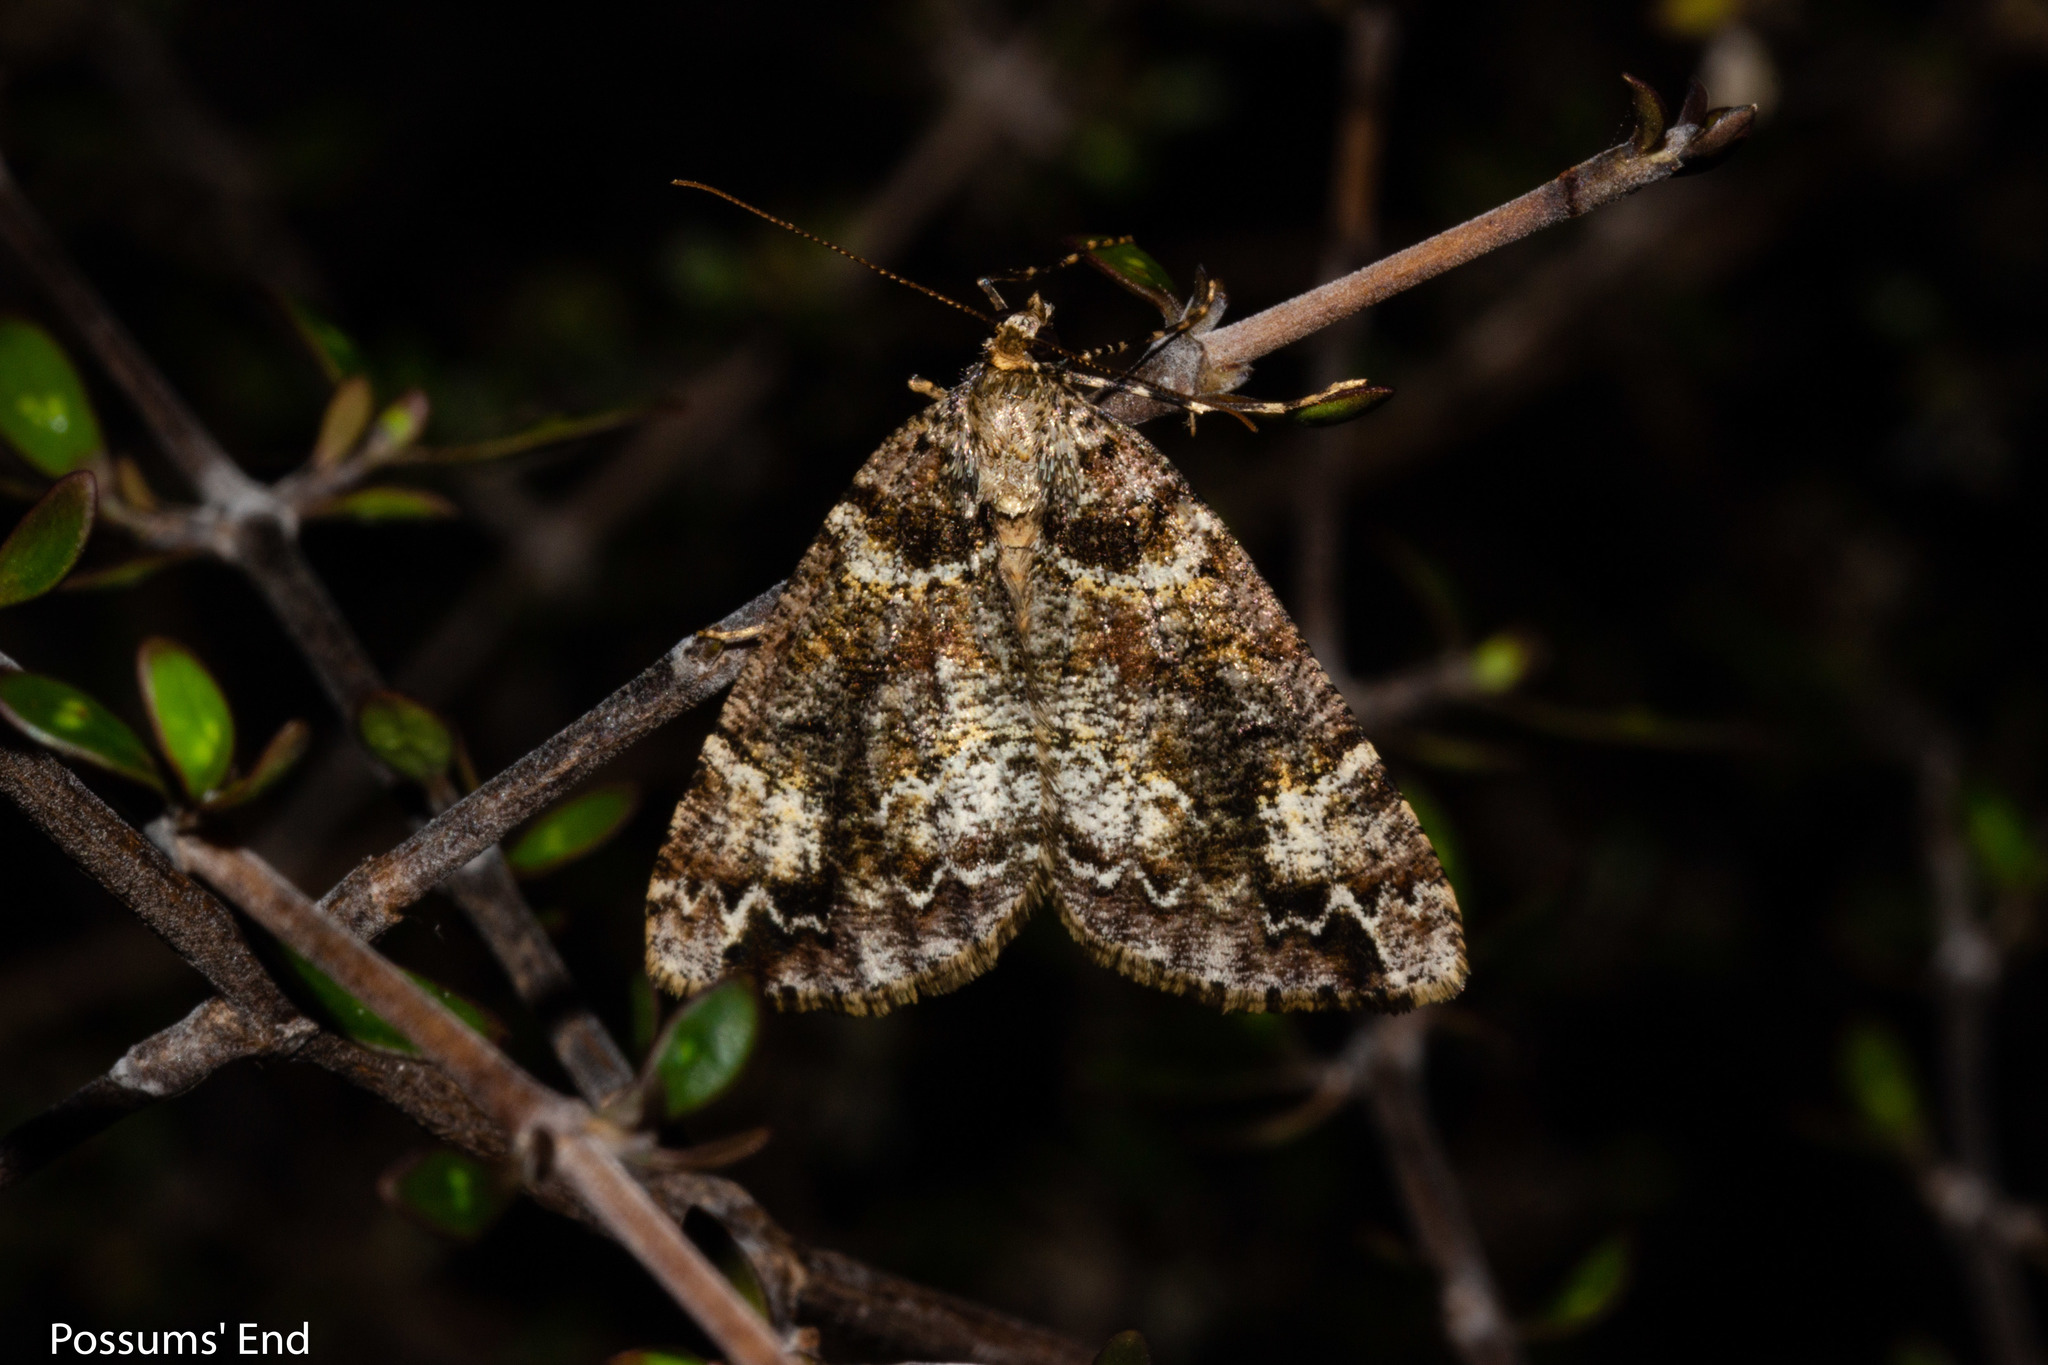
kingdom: Animalia
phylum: Arthropoda
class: Insecta
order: Lepidoptera
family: Geometridae
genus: Pseudocoremia
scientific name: Pseudocoremia productata
